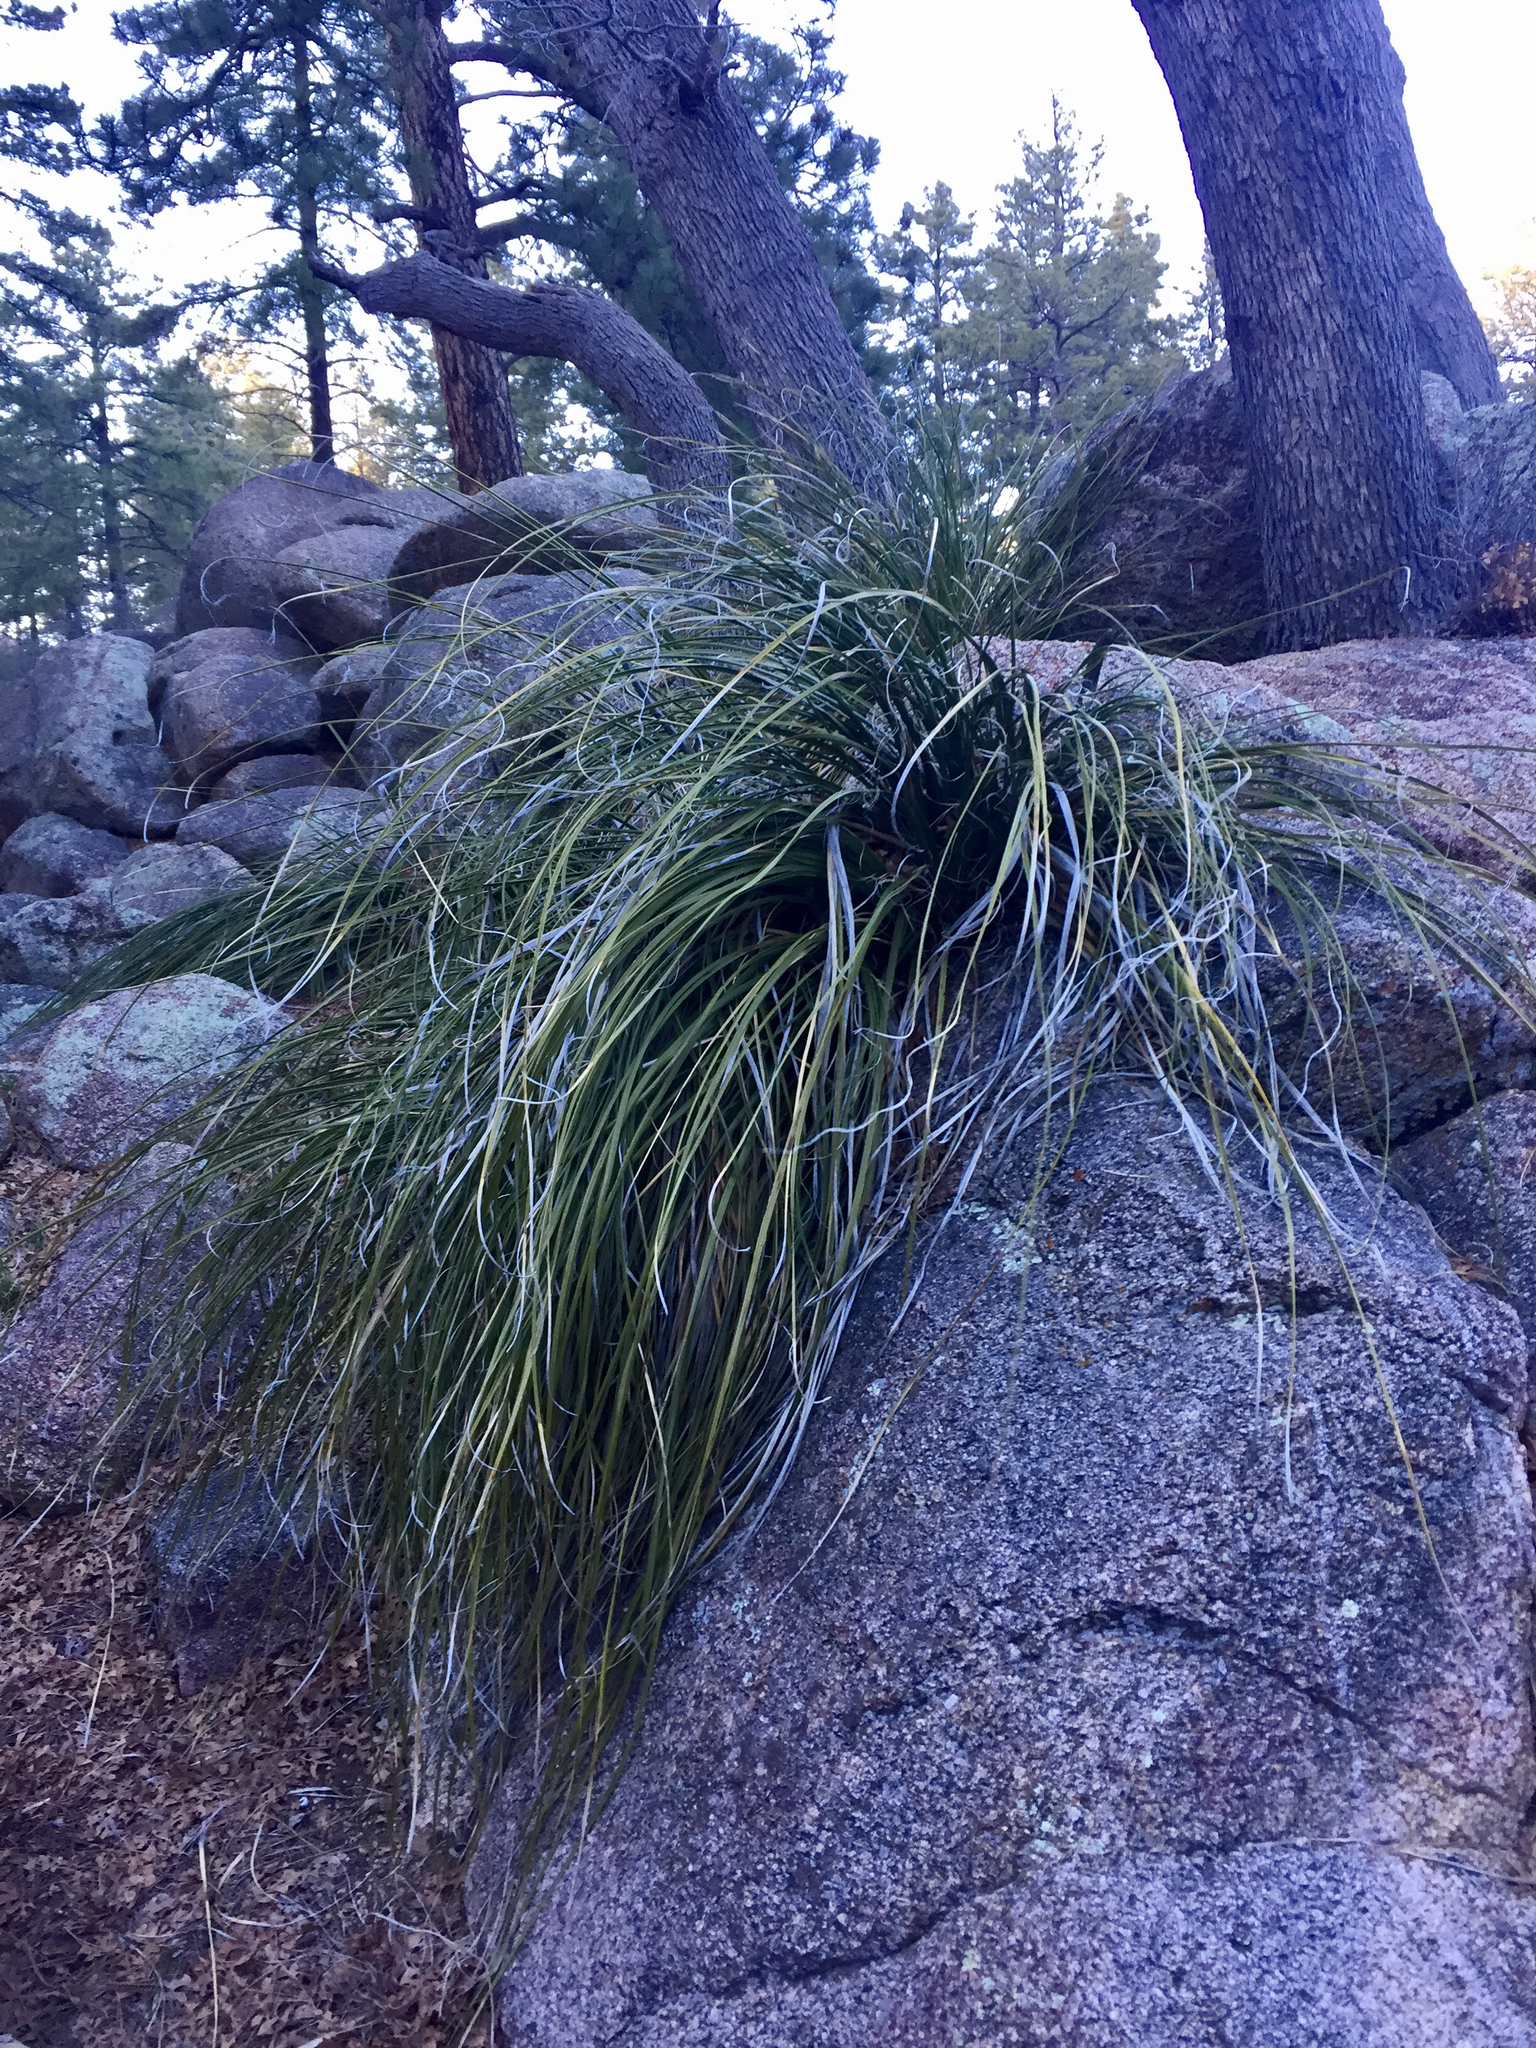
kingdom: Plantae
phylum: Tracheophyta
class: Liliopsida
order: Asparagales
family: Asparagaceae
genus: Nolina
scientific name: Nolina microcarpa
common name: Bear-grass
